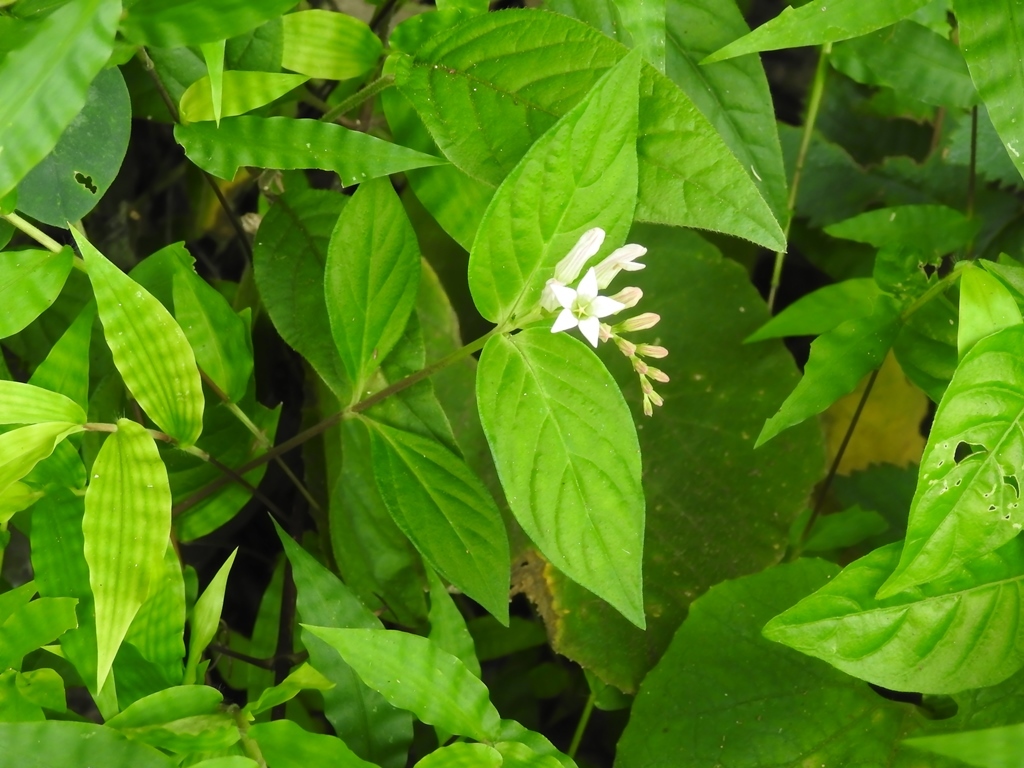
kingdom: Plantae
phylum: Tracheophyta
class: Magnoliopsida
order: Gentianales
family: Loganiaceae
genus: Spigelia
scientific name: Spigelia humboldtiana
